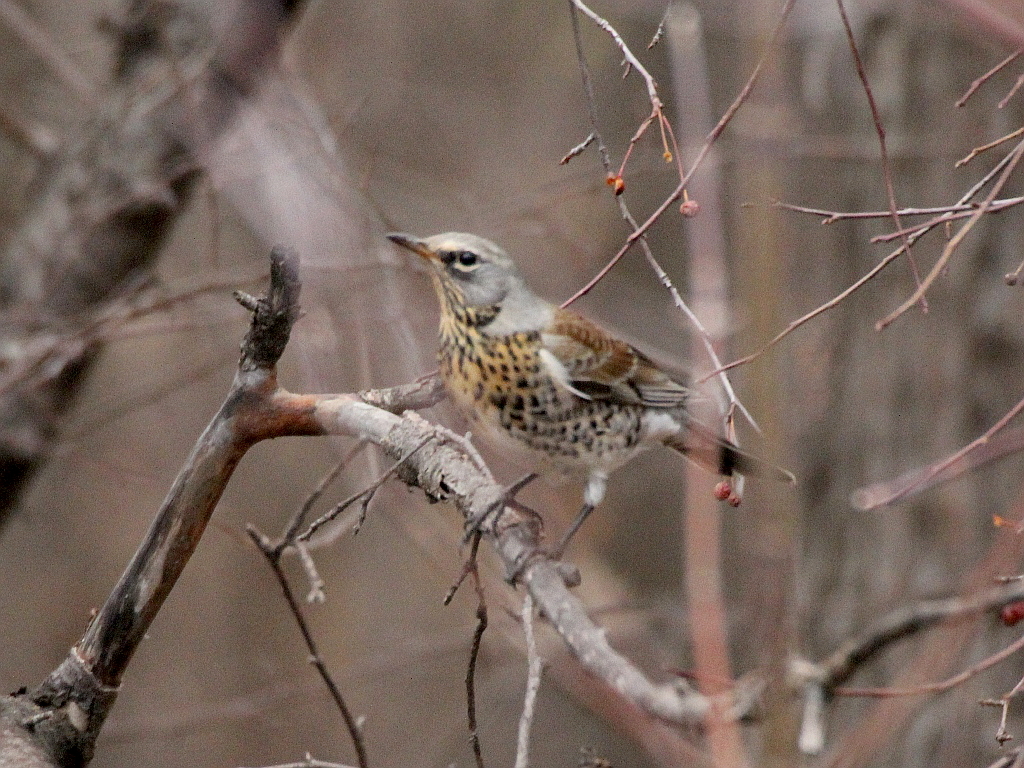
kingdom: Animalia
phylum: Chordata
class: Aves
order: Passeriformes
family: Turdidae
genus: Turdus
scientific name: Turdus pilaris
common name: Fieldfare
